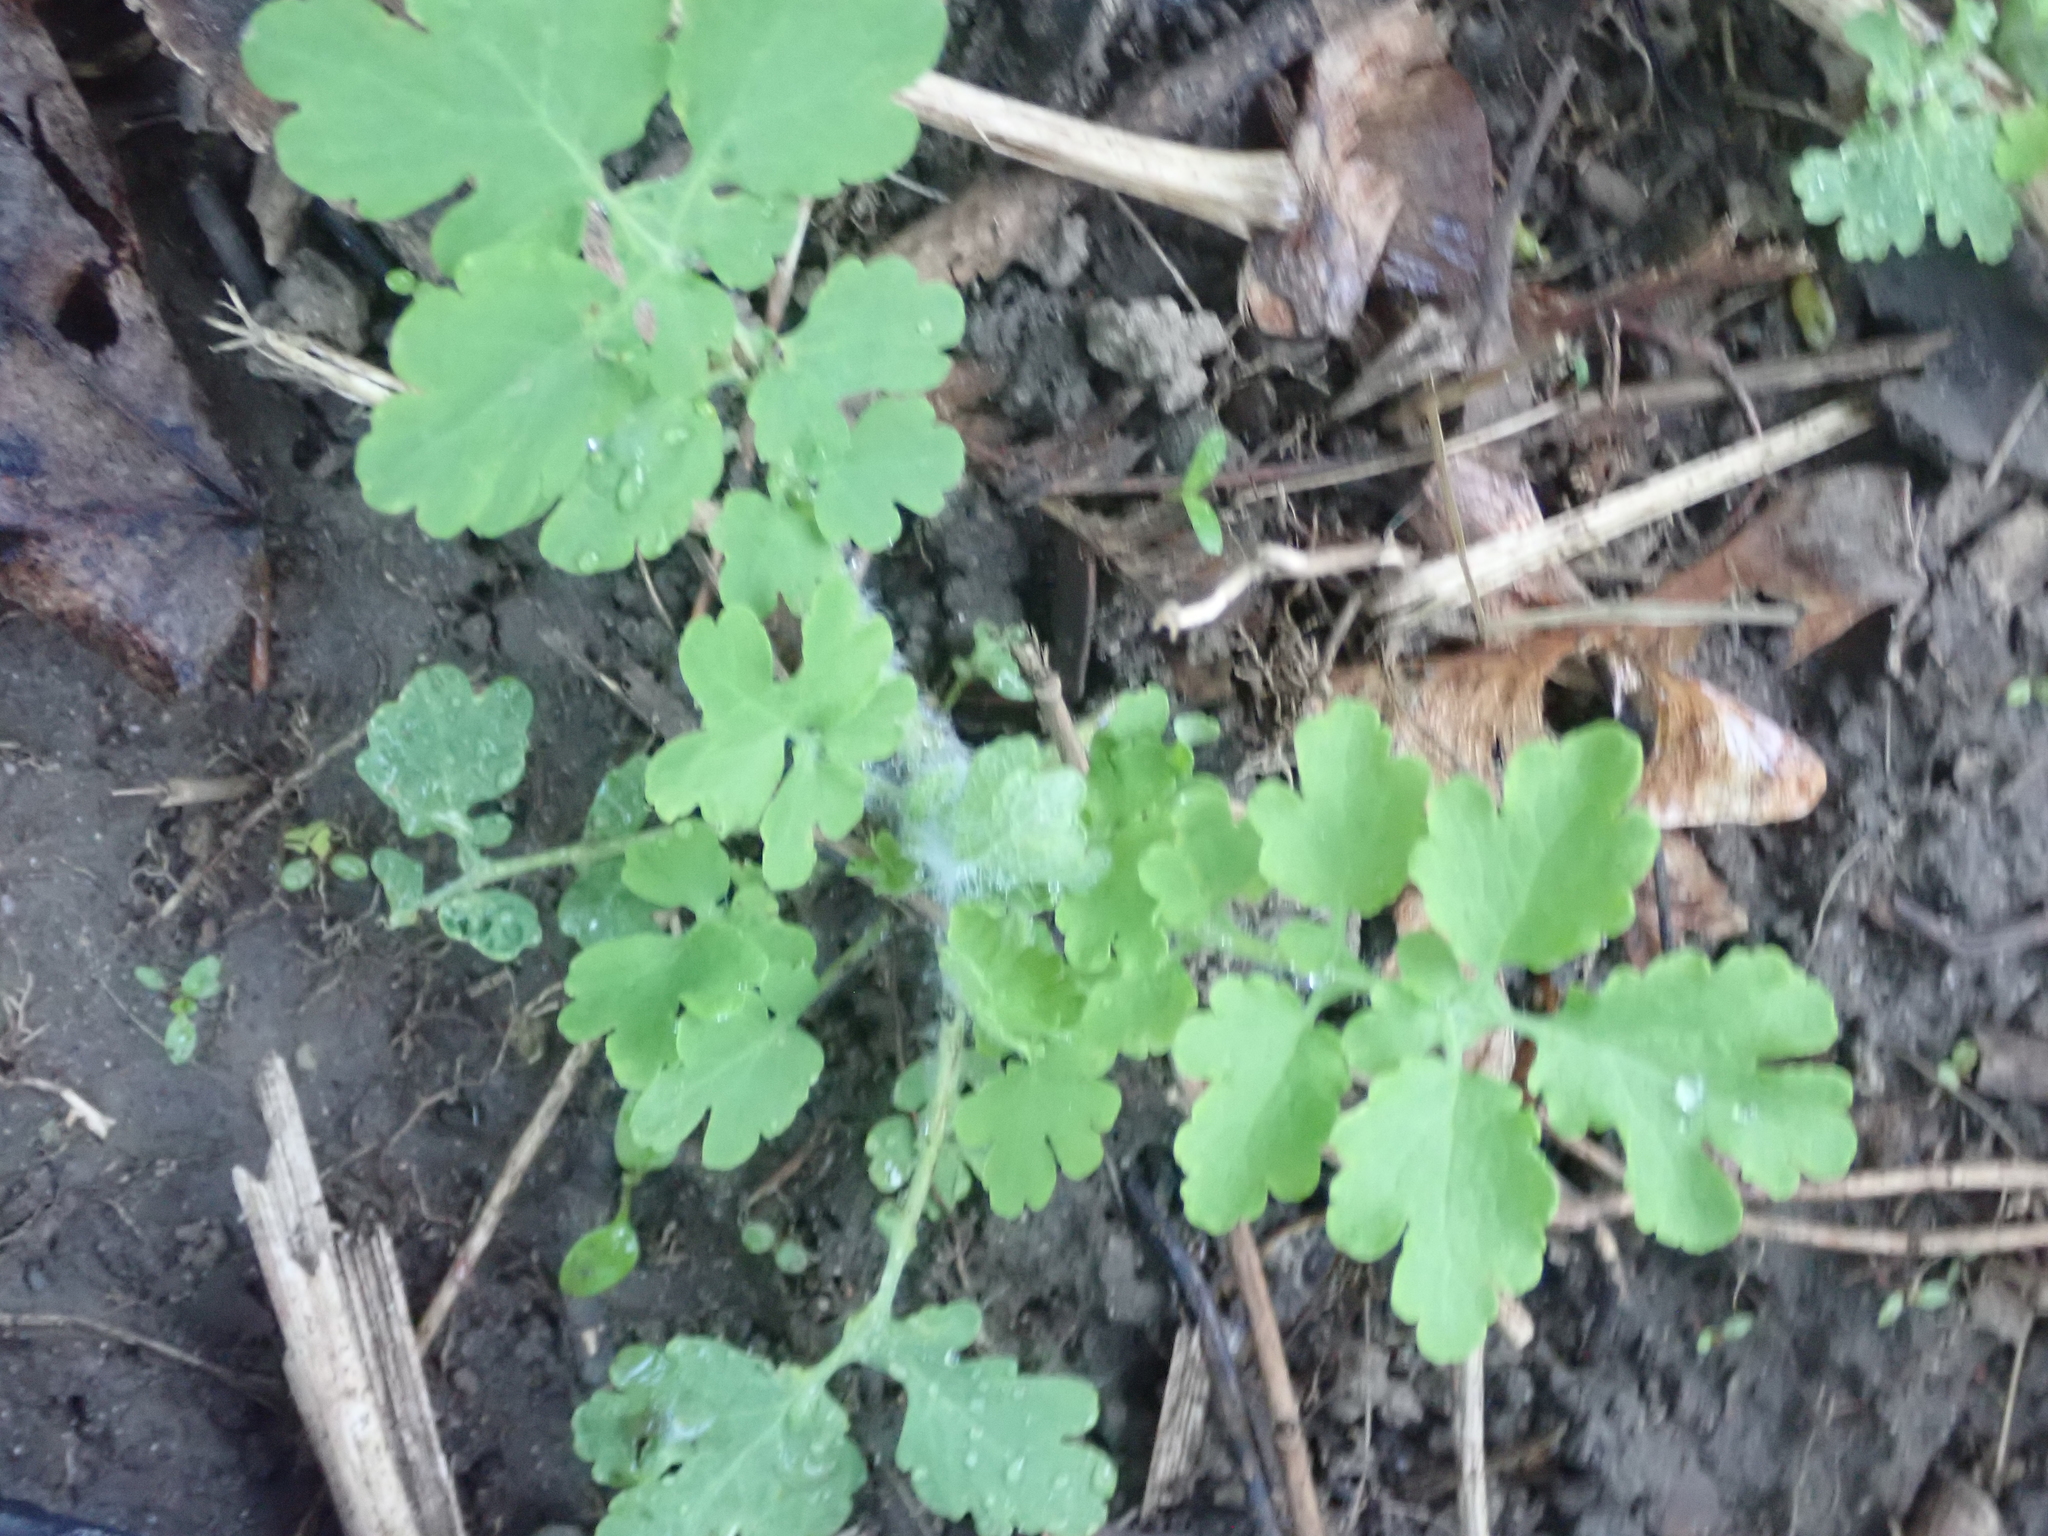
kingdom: Plantae
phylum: Tracheophyta
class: Magnoliopsida
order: Ranunculales
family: Papaveraceae
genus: Chelidonium
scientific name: Chelidonium majus
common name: Greater celandine
